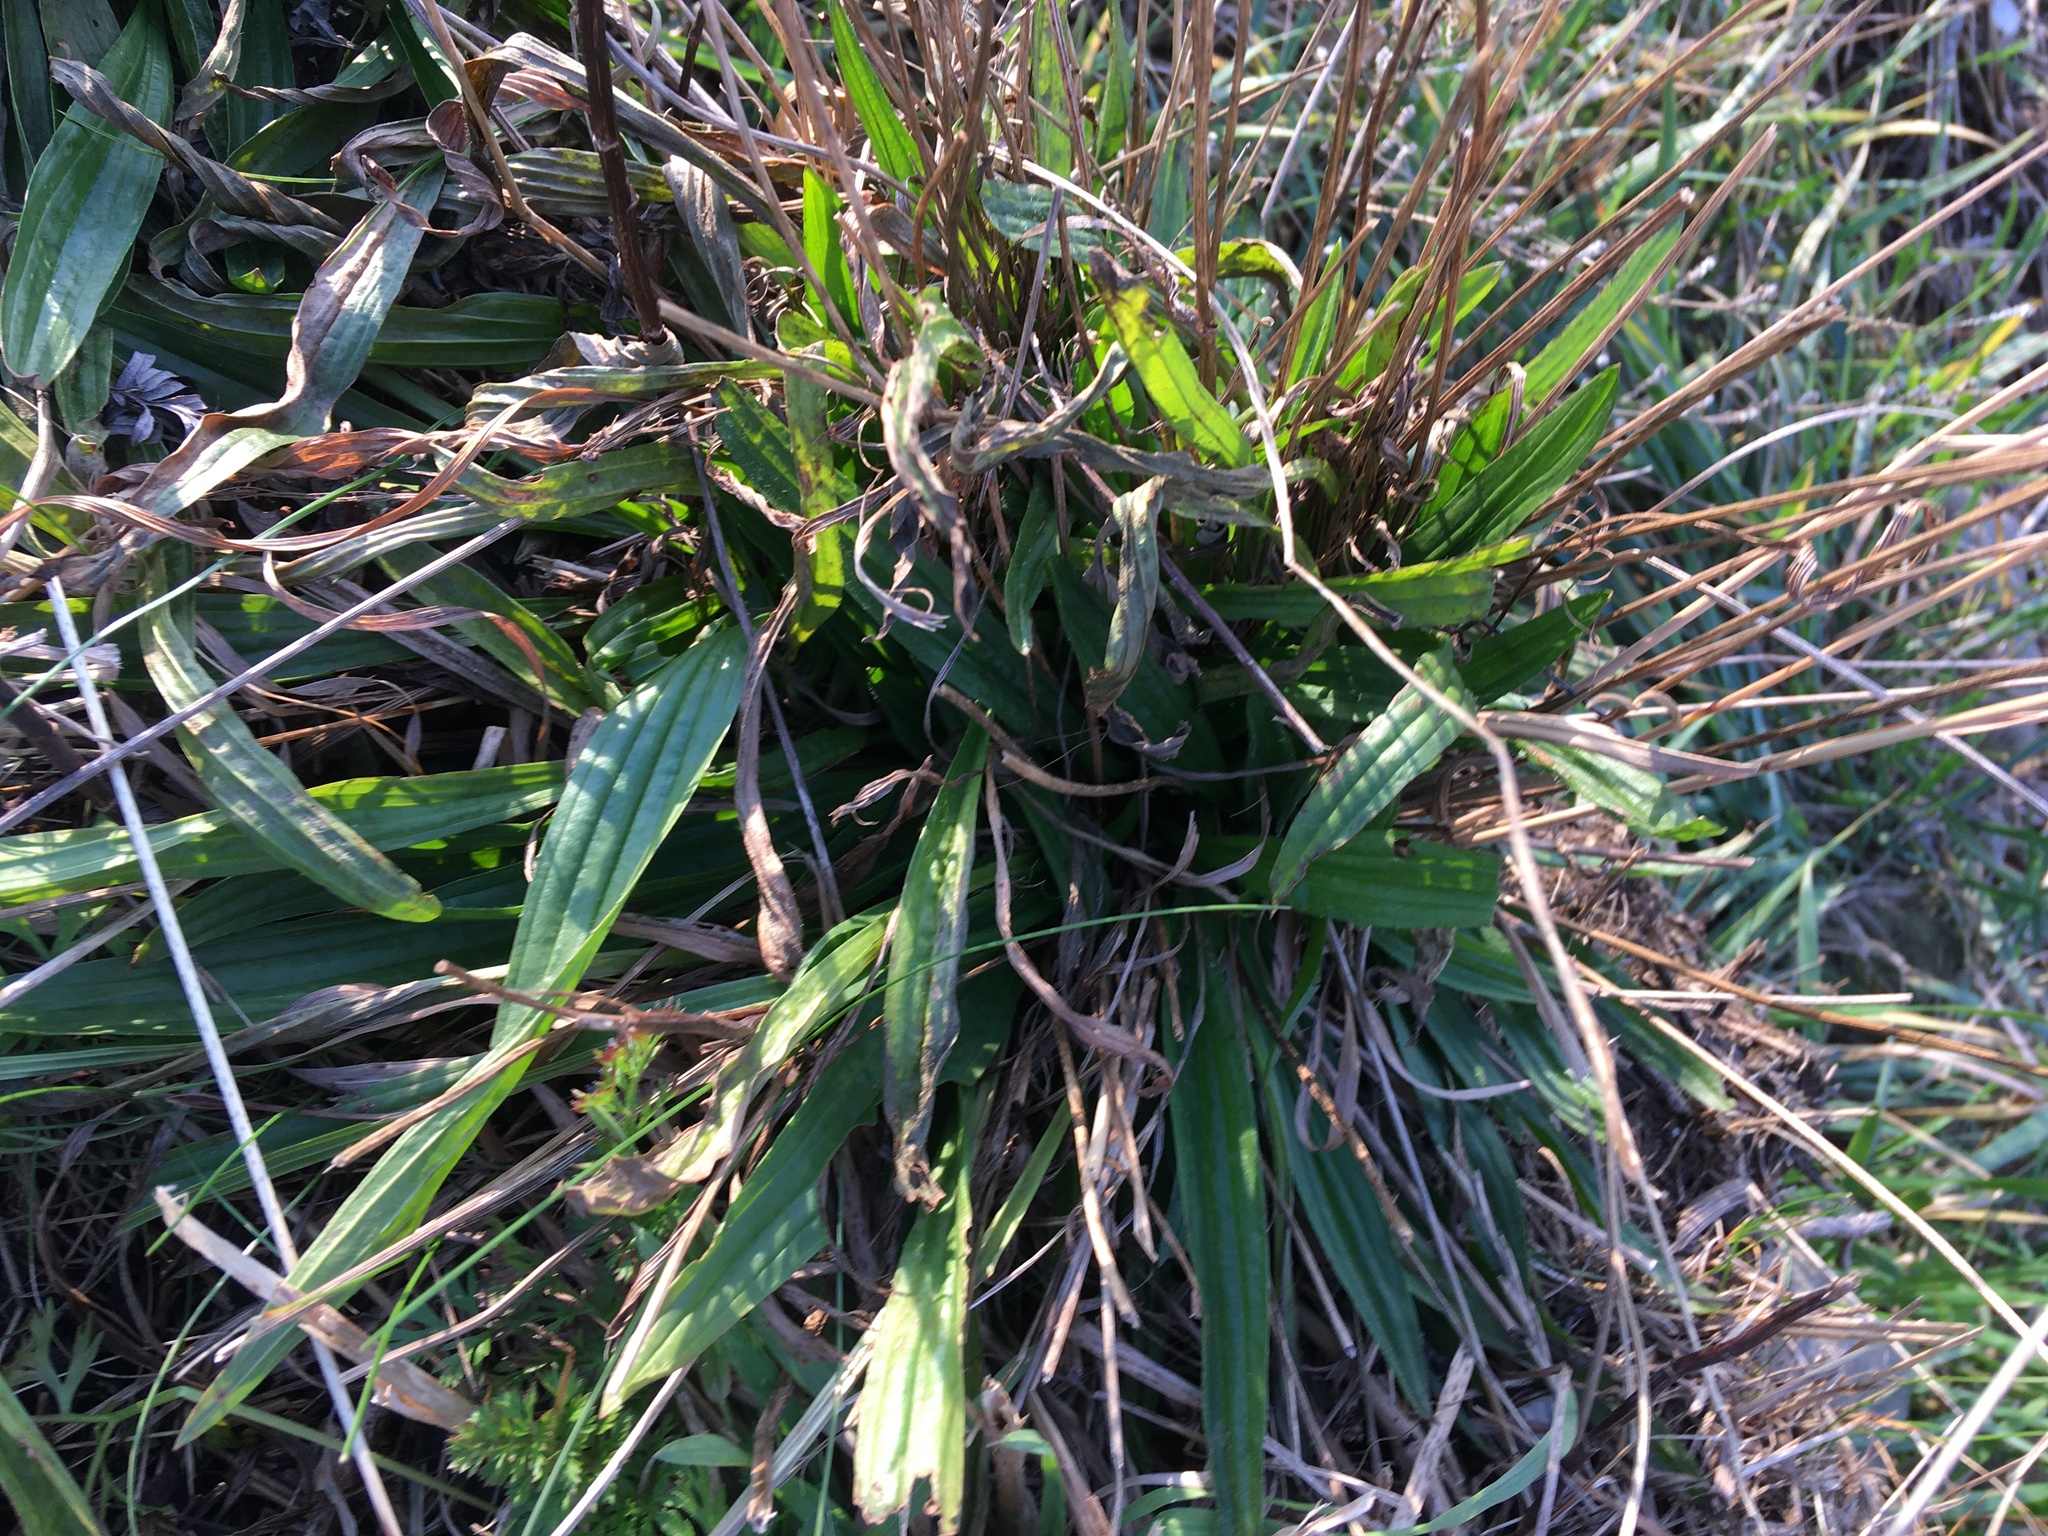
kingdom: Plantae
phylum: Tracheophyta
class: Magnoliopsida
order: Lamiales
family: Plantaginaceae
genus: Plantago
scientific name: Plantago lanceolata
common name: Ribwort plantain
